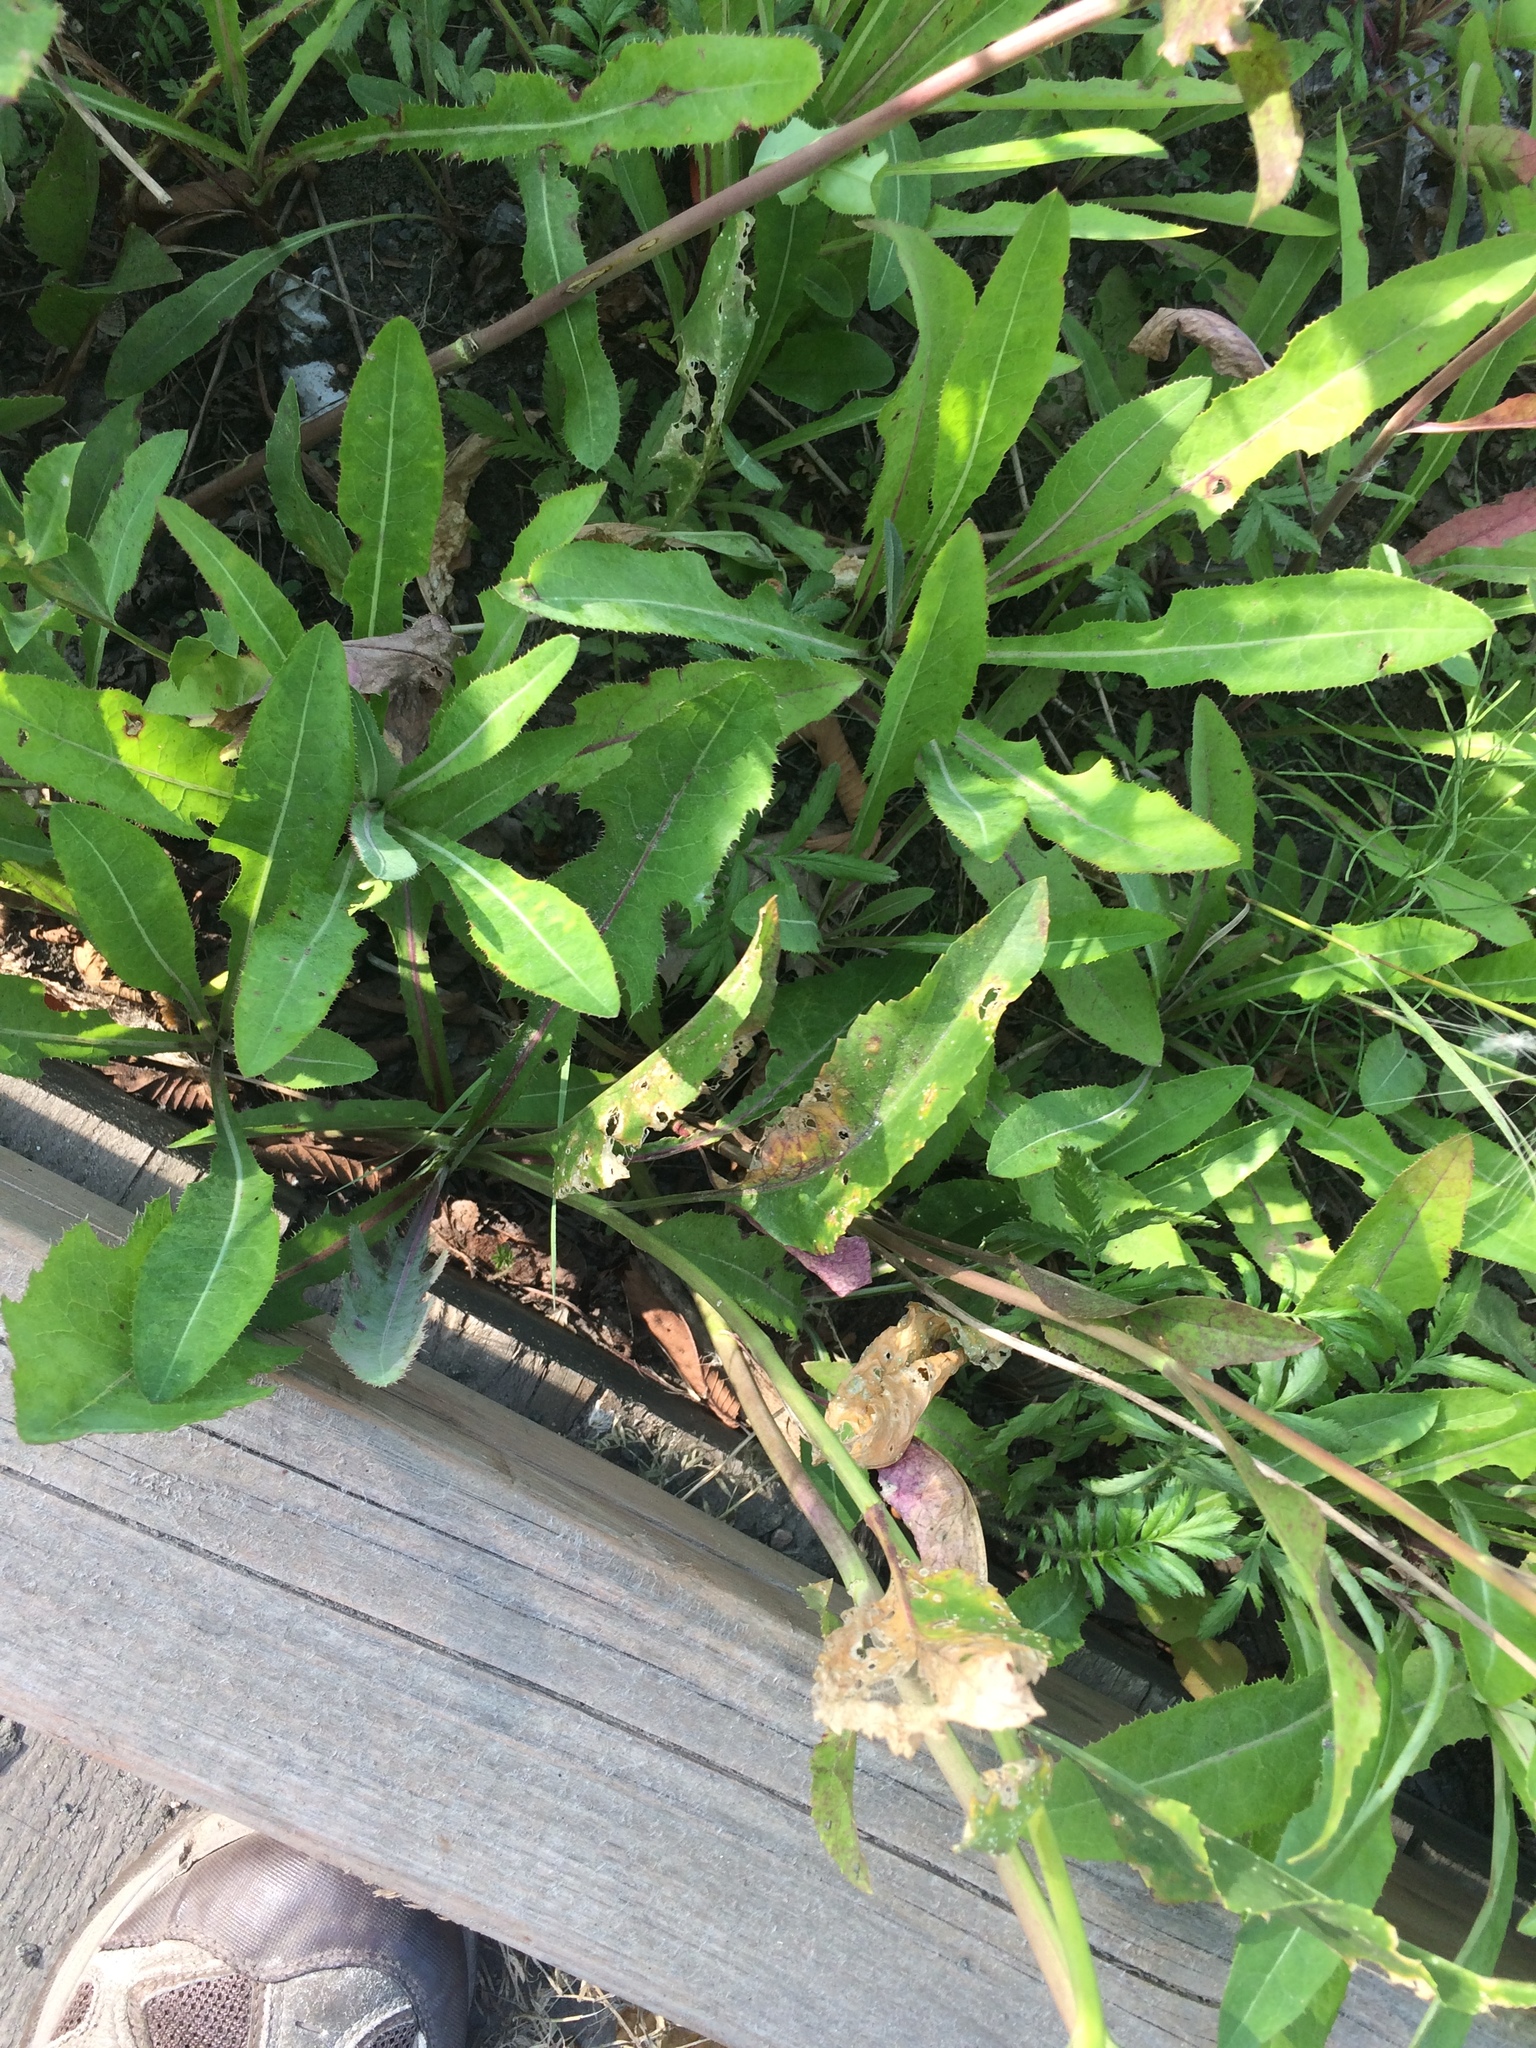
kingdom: Plantae
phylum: Tracheophyta
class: Magnoliopsida
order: Brassicales
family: Brassicaceae
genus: Lepidium
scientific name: Lepidium latifolium
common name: Dittander
